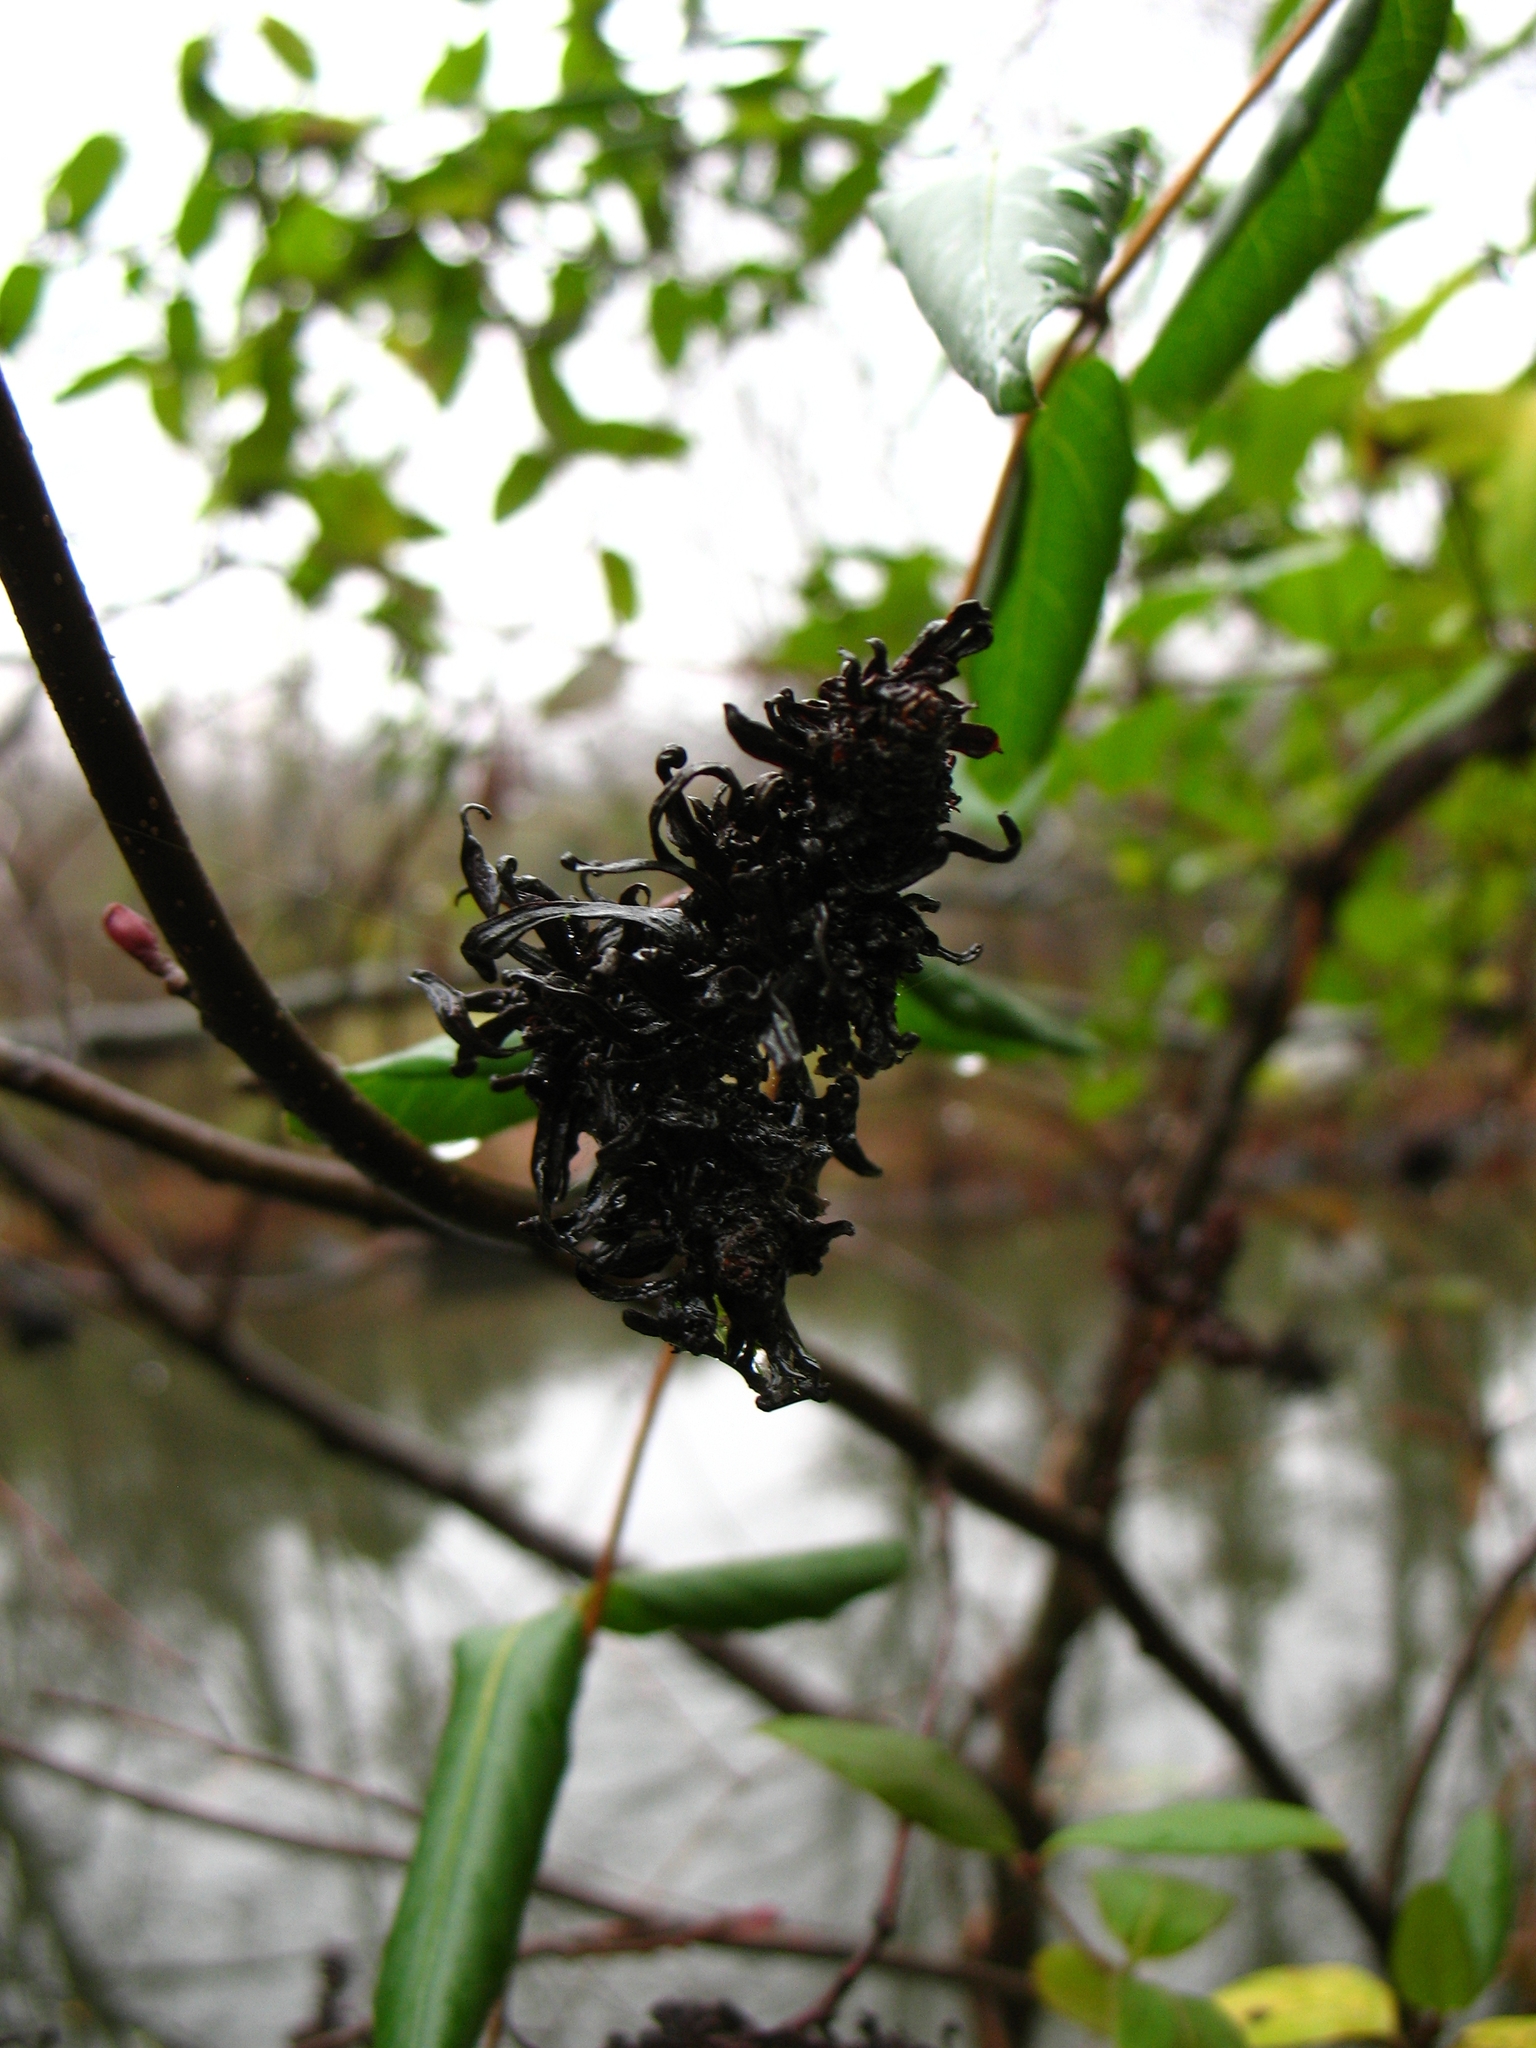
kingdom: Fungi
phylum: Ascomycota
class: Taphrinomycetes
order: Taphrinales
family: Taphrinaceae
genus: Taphrina
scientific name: Taphrina robinsoniana
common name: Eastern american alder tongue gall fungus
